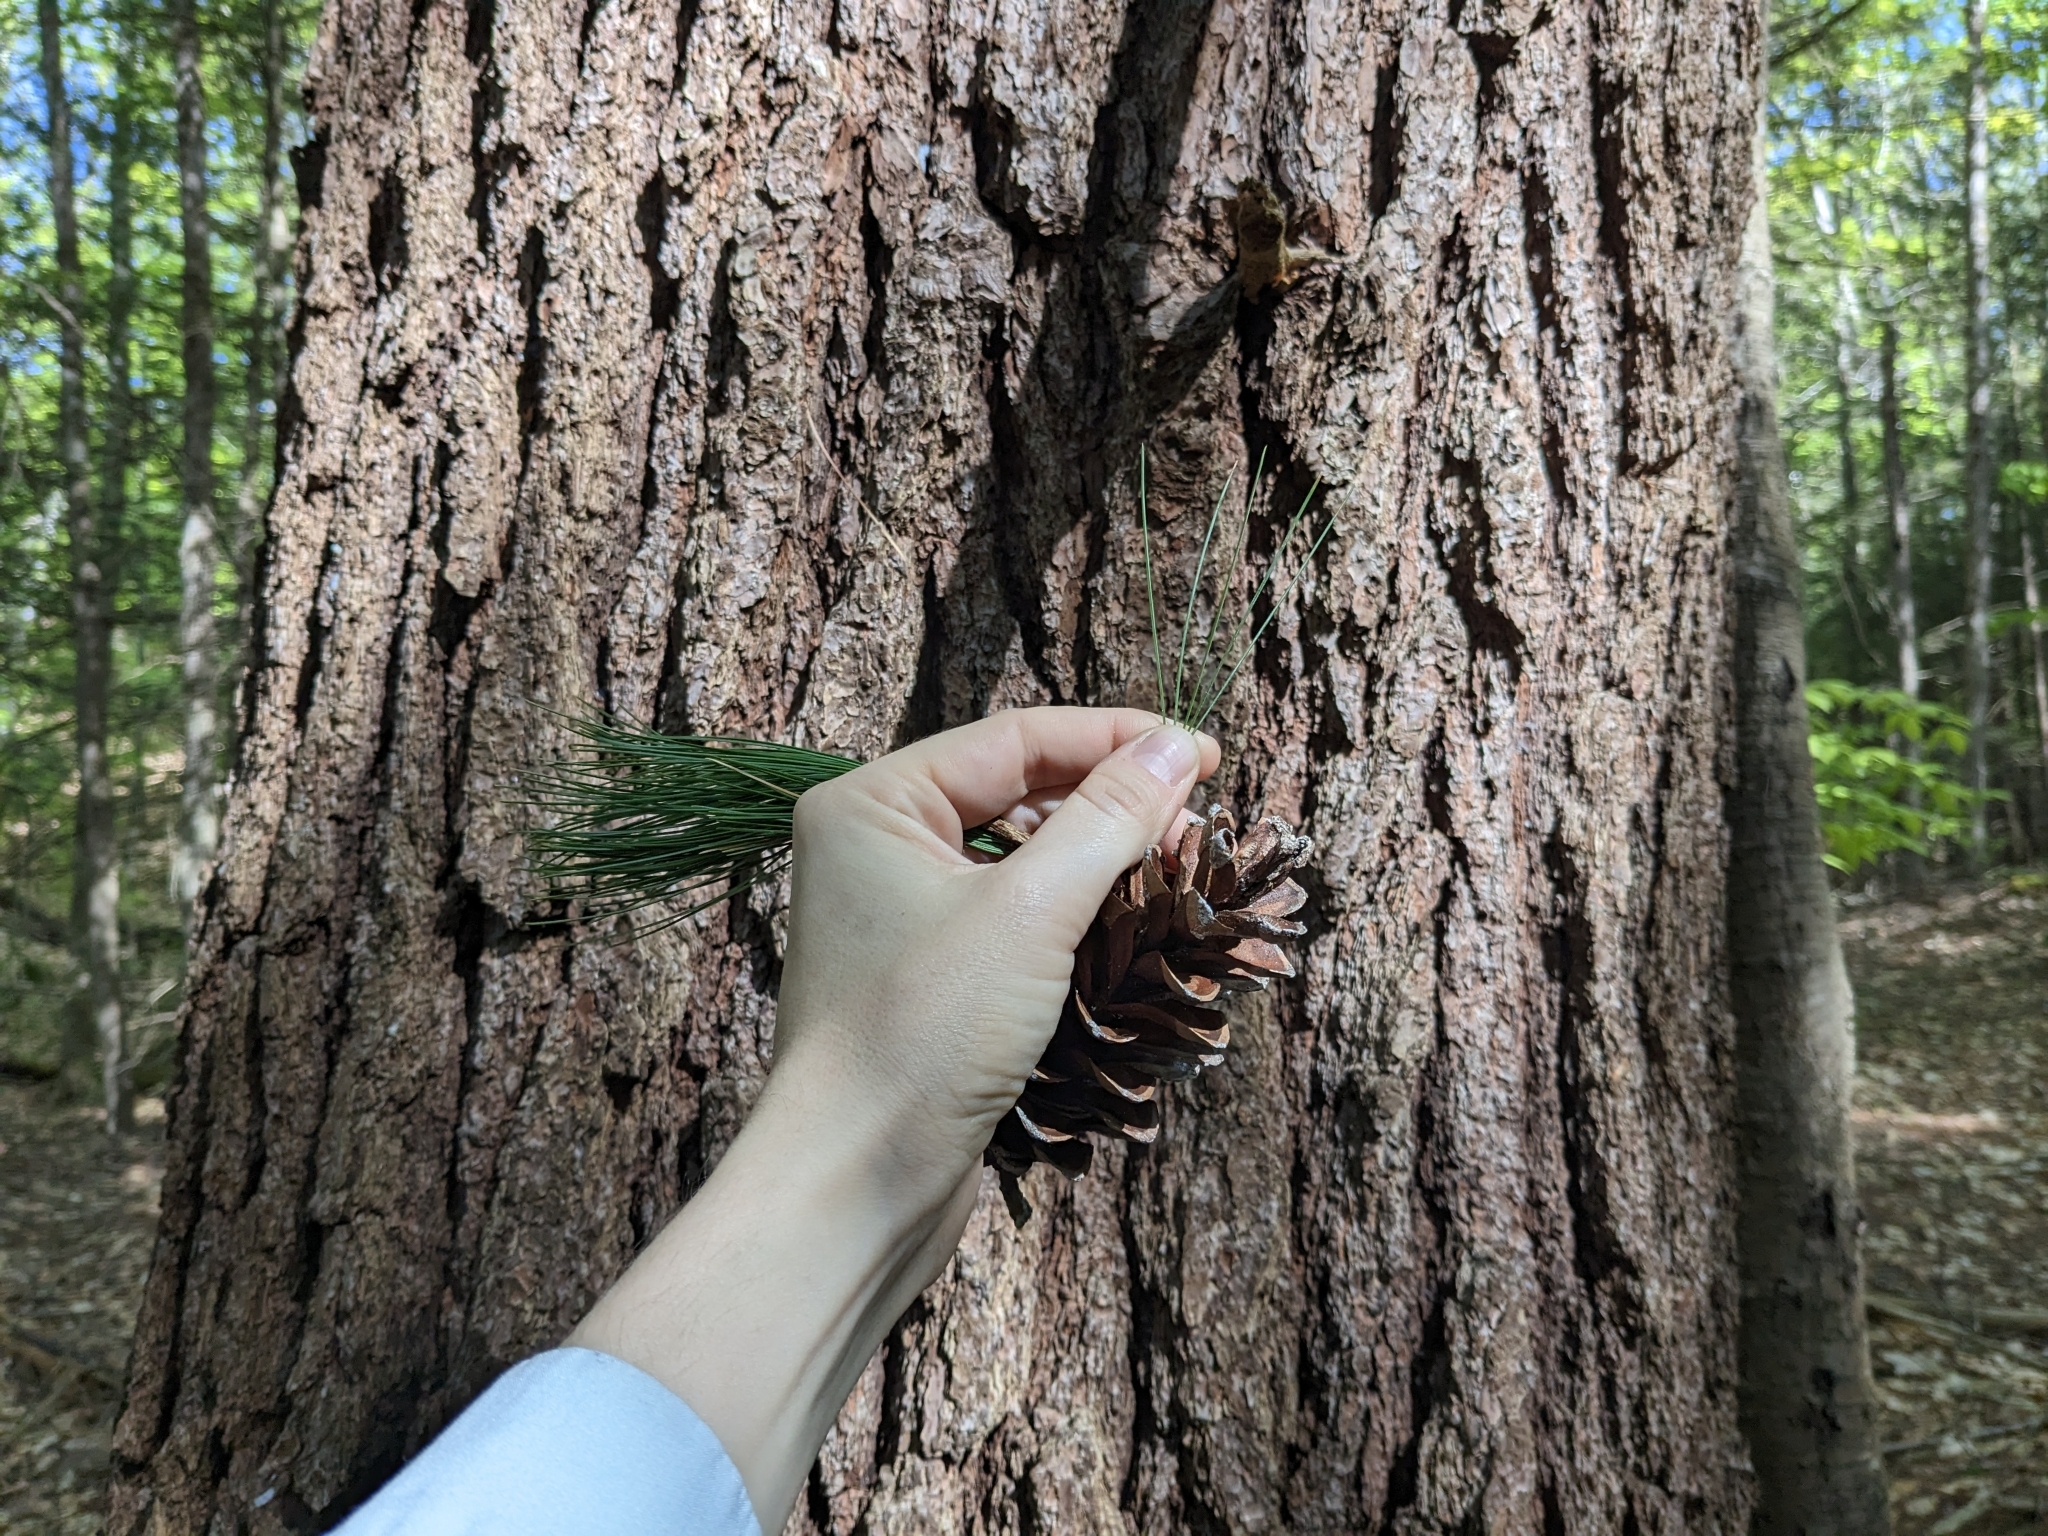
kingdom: Plantae
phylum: Tracheophyta
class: Pinopsida
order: Pinales
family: Pinaceae
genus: Pinus
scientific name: Pinus strobus
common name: Weymouth pine
